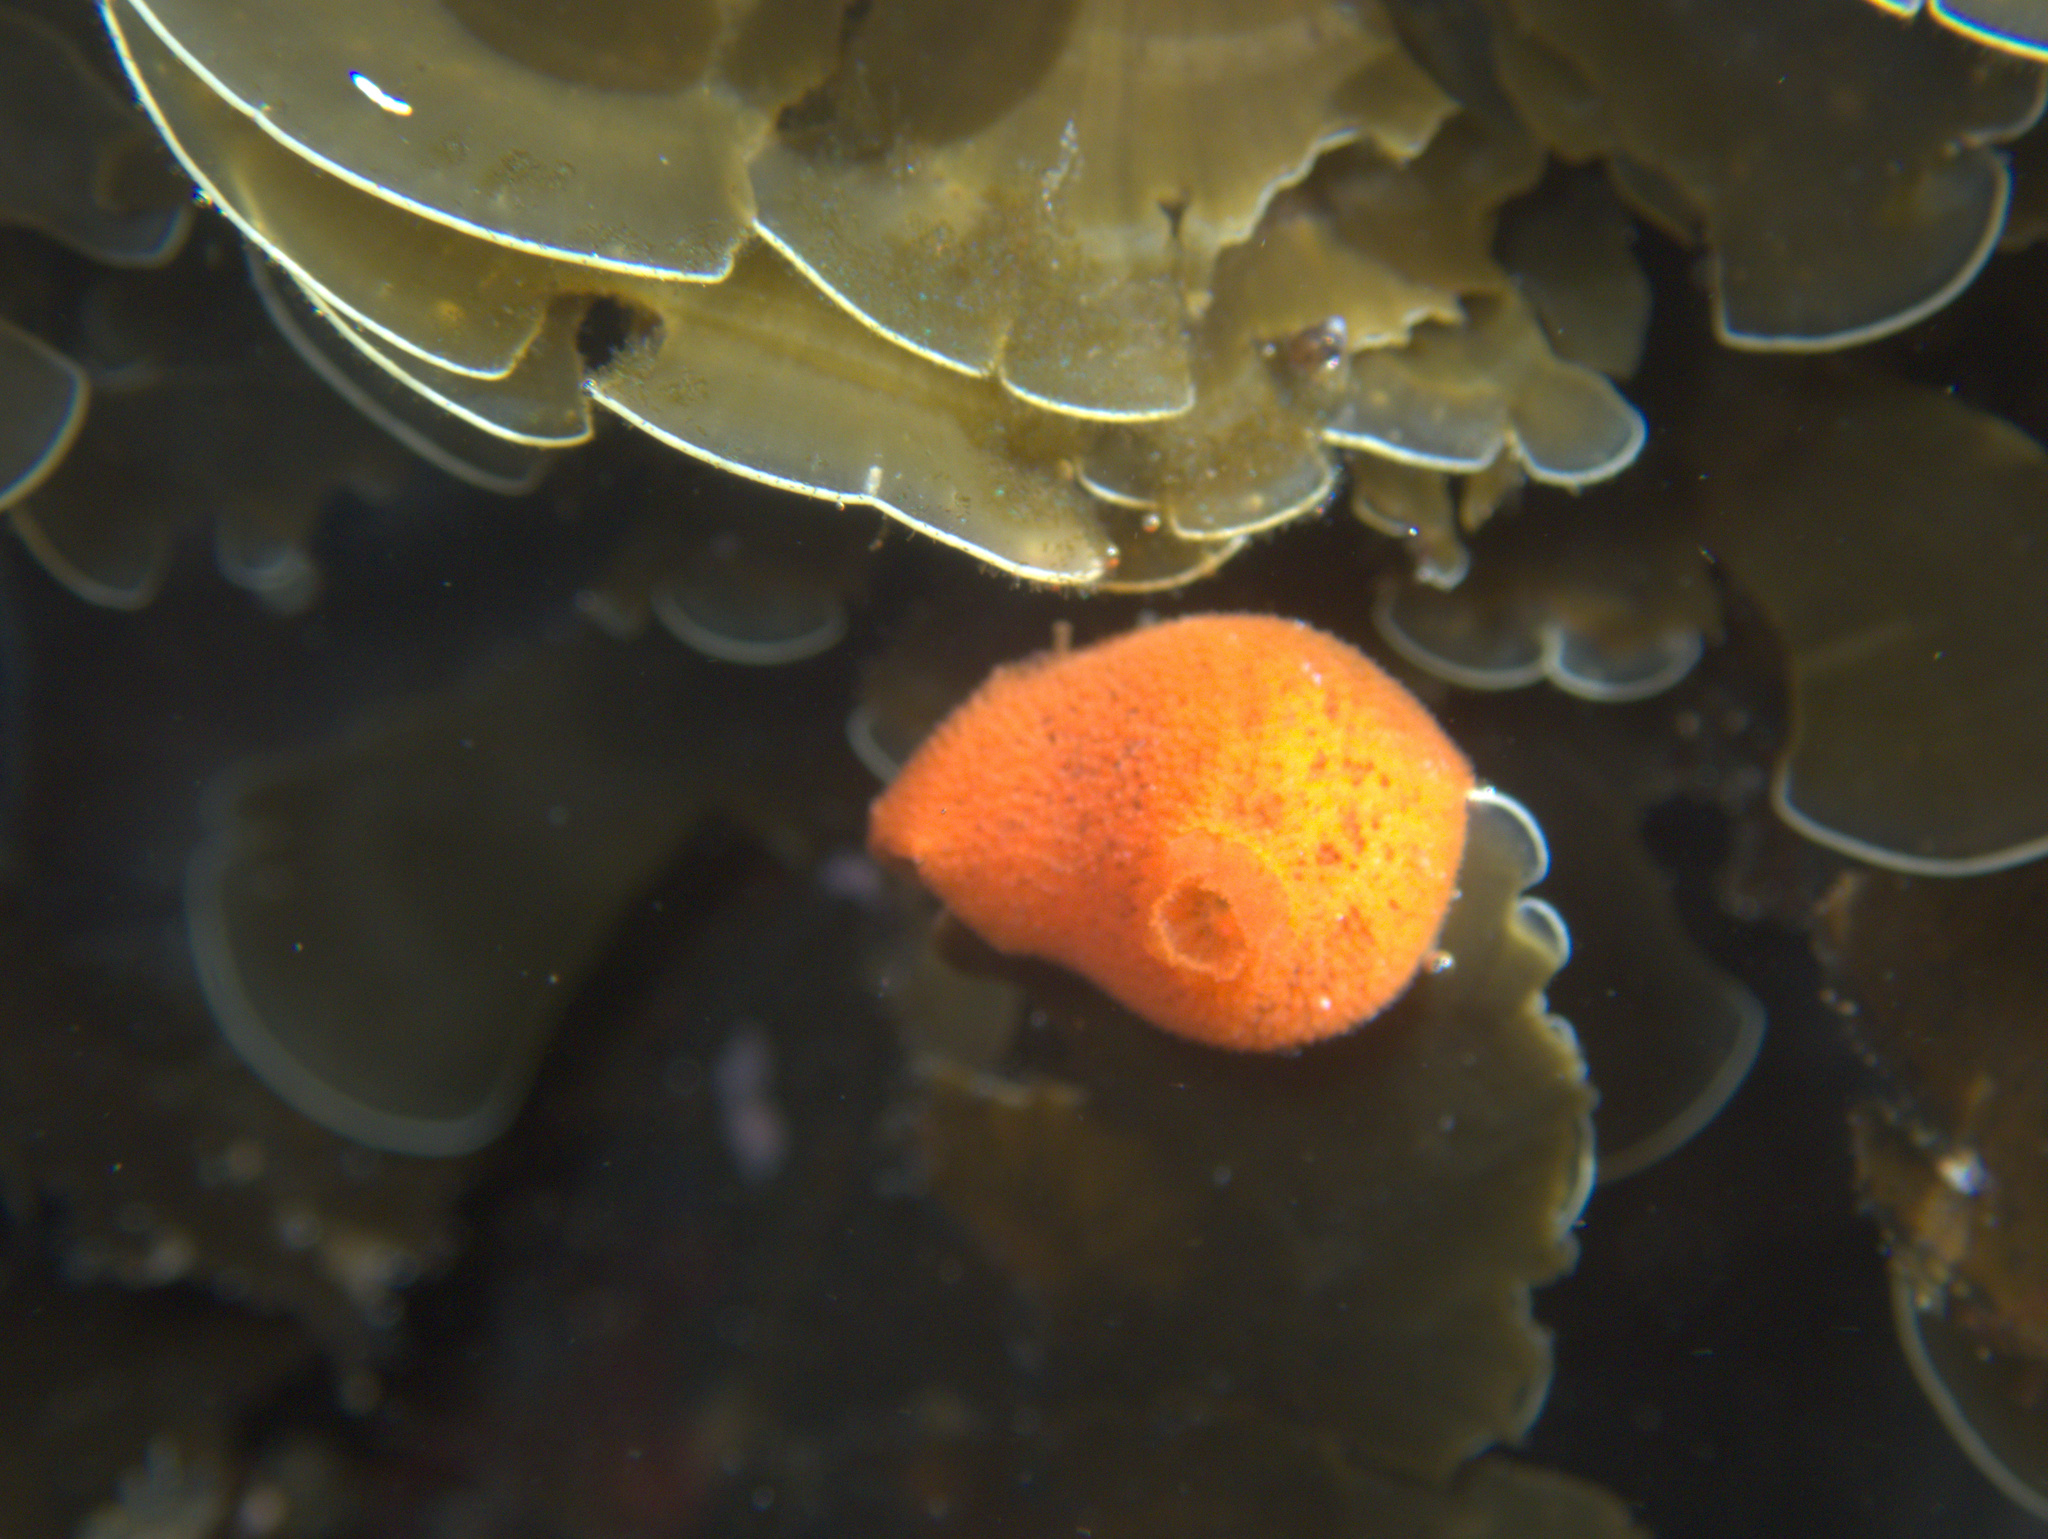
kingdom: Animalia
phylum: Mollusca
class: Gastropoda
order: Nudibranchia
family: Discodorididae
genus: Rostanga
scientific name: Rostanga muscula
